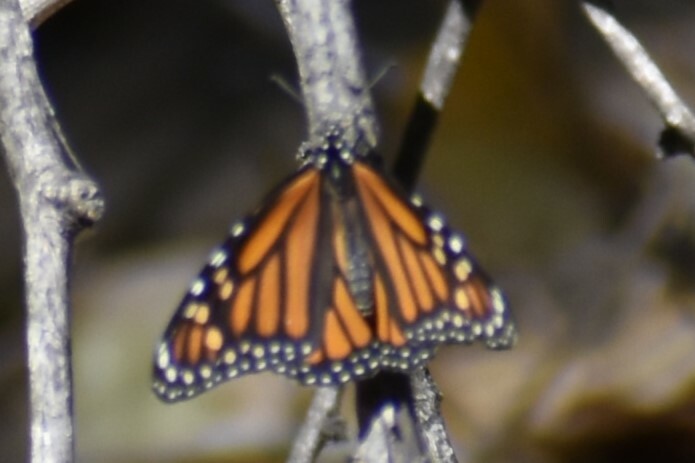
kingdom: Animalia
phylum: Arthropoda
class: Insecta
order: Lepidoptera
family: Nymphalidae
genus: Danaus
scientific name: Danaus plexippus
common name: Monarch
